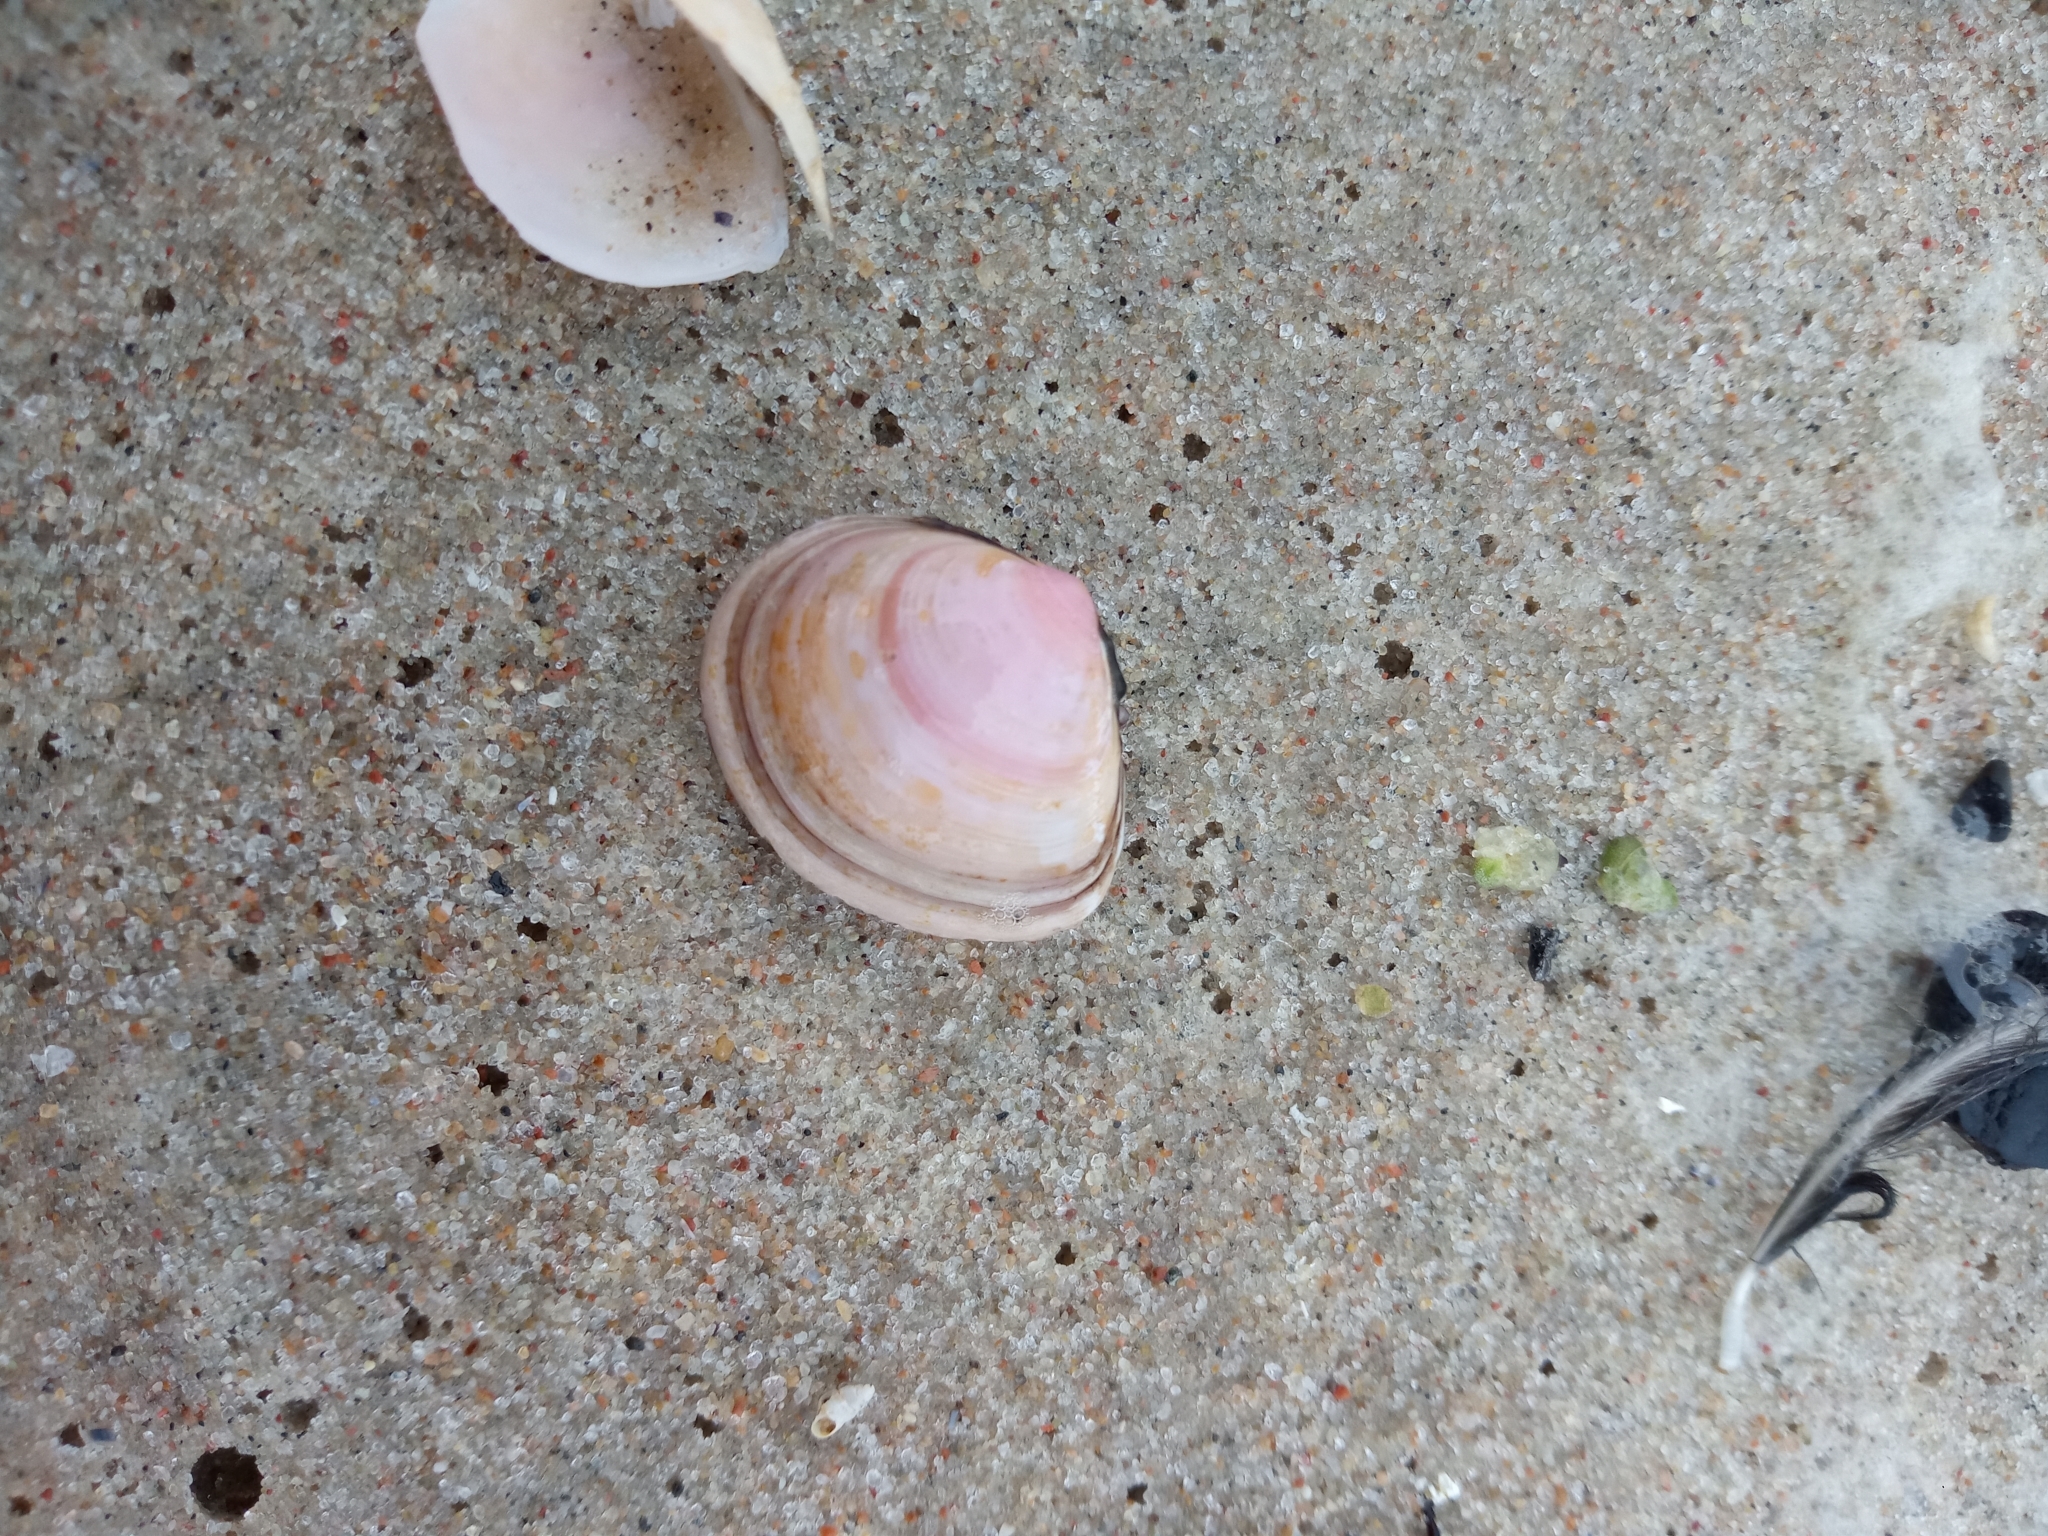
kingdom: Animalia
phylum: Mollusca
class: Bivalvia
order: Cardiida
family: Tellinidae
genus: Macoma
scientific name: Macoma balthica
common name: Baltic tellin
